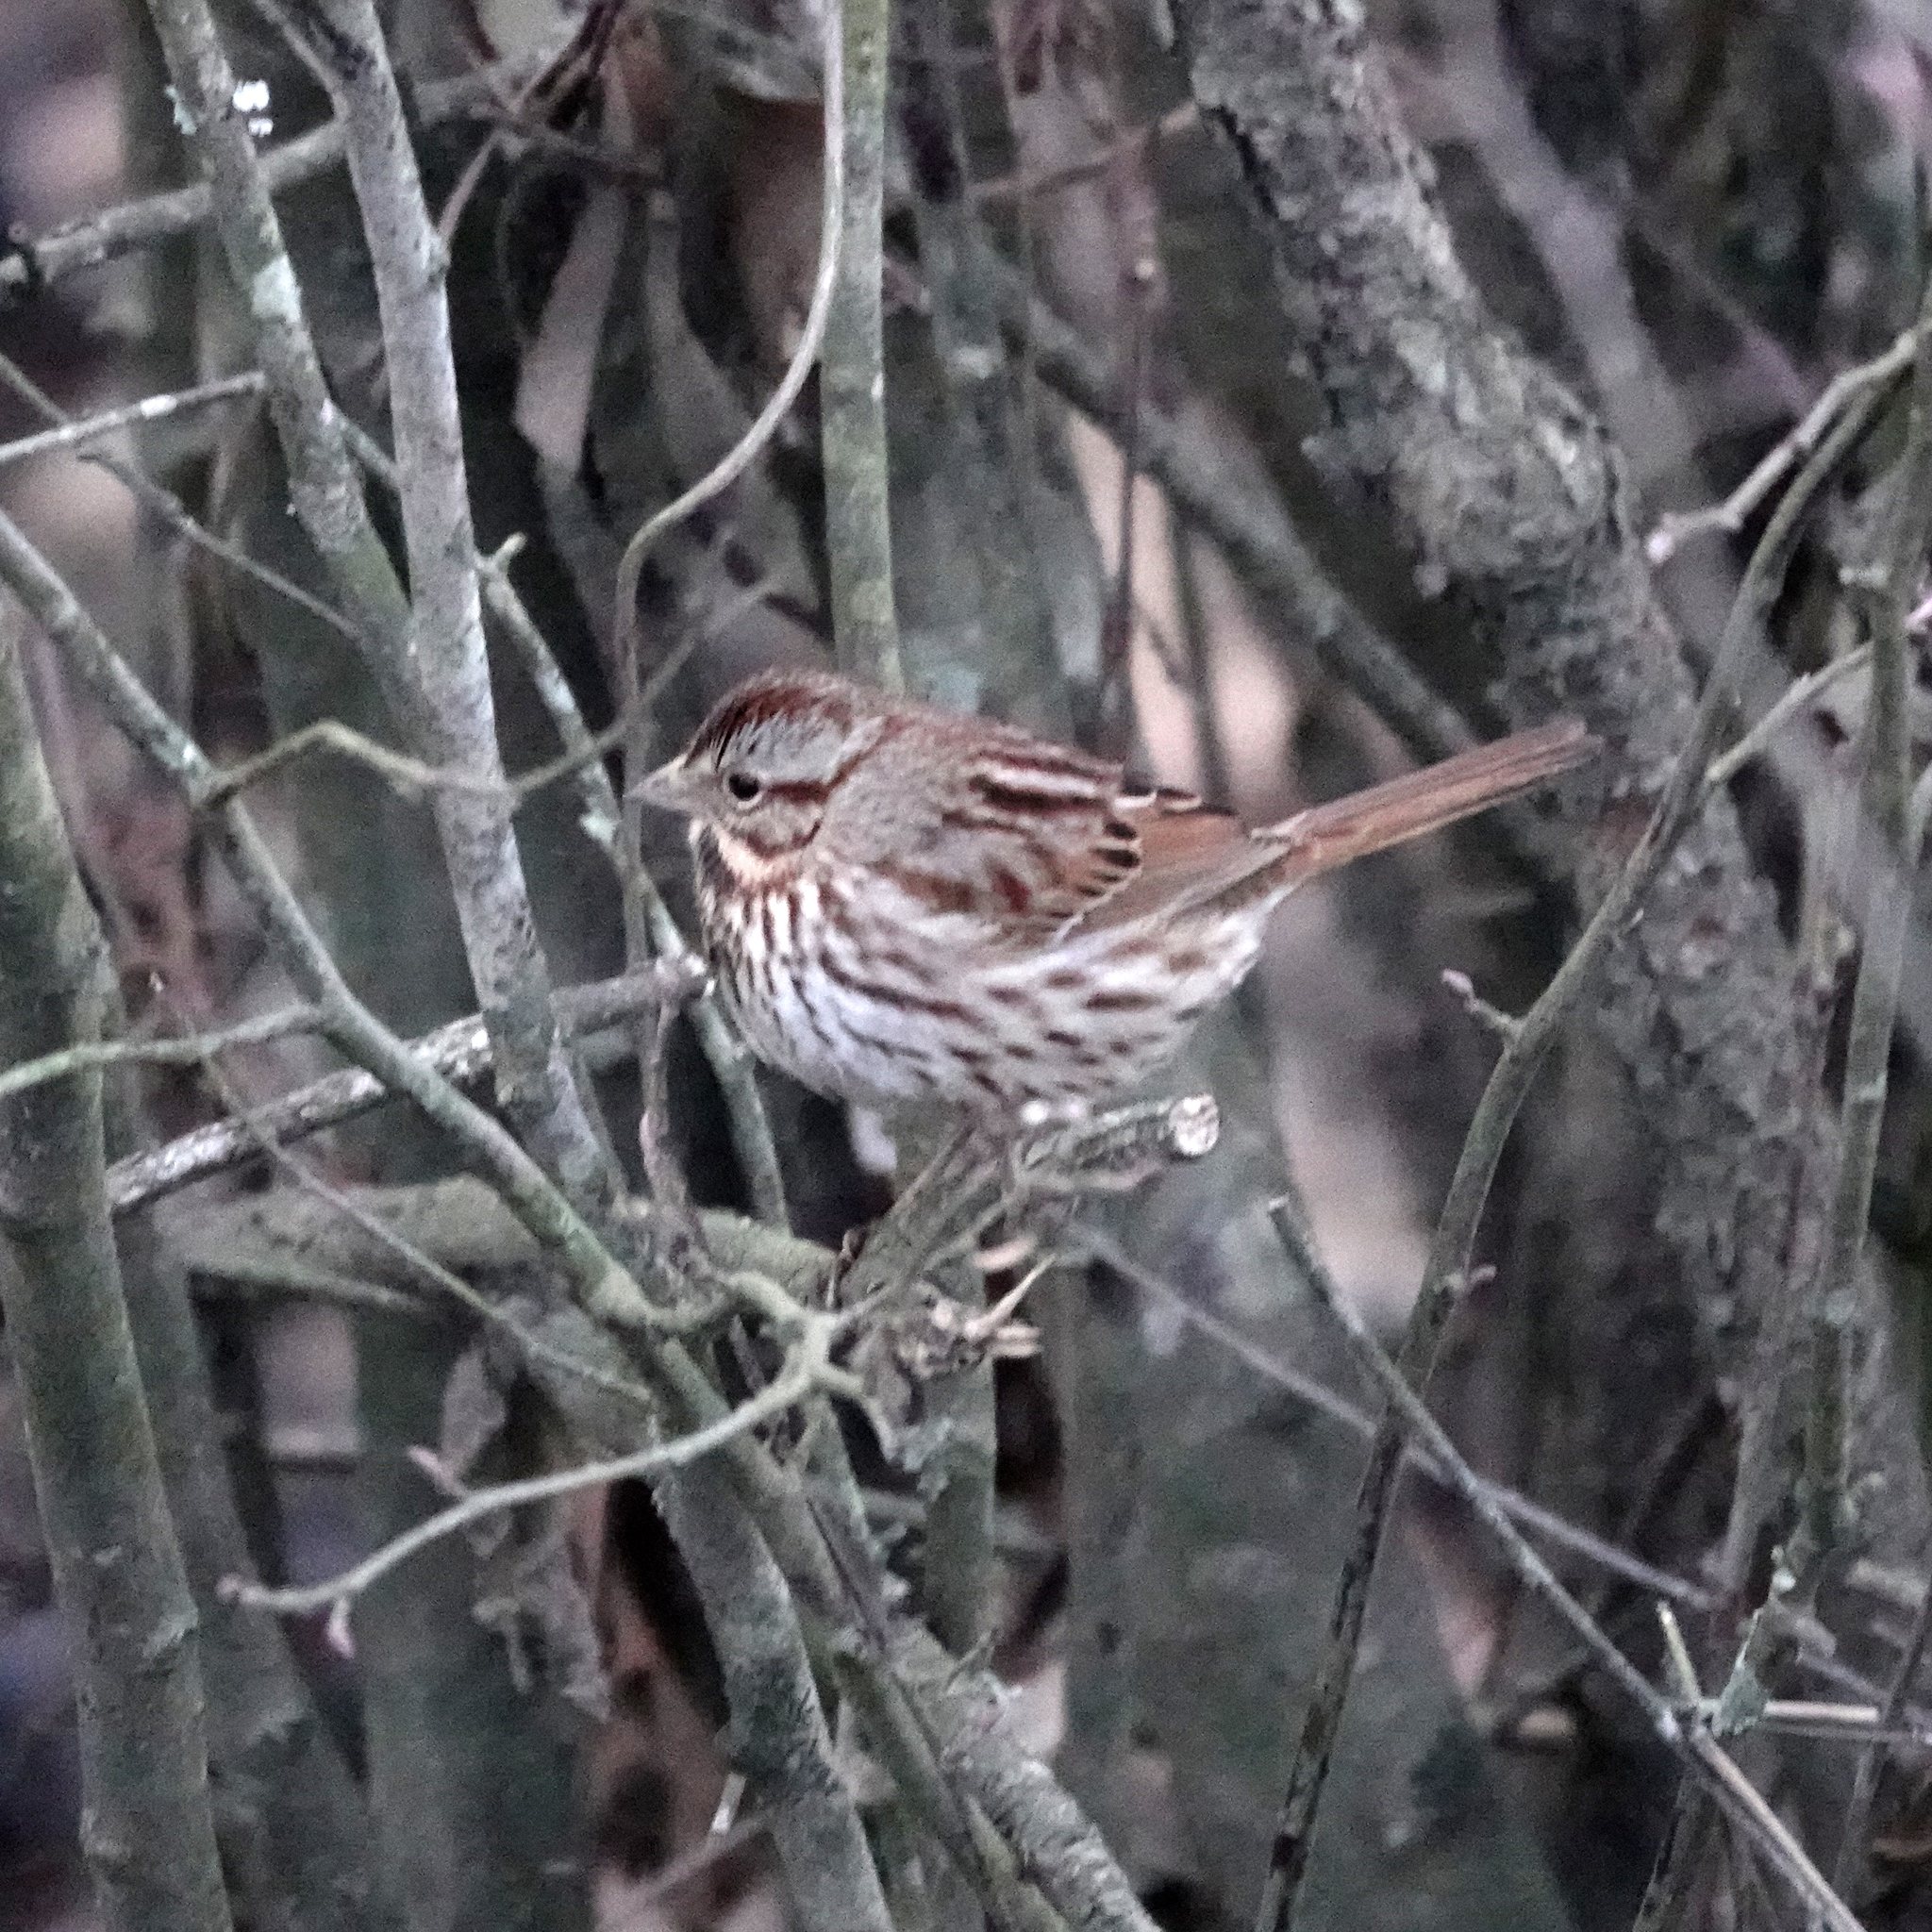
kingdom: Animalia
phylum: Chordata
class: Aves
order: Passeriformes
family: Passerellidae
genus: Melospiza
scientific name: Melospiza melodia
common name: Song sparrow
